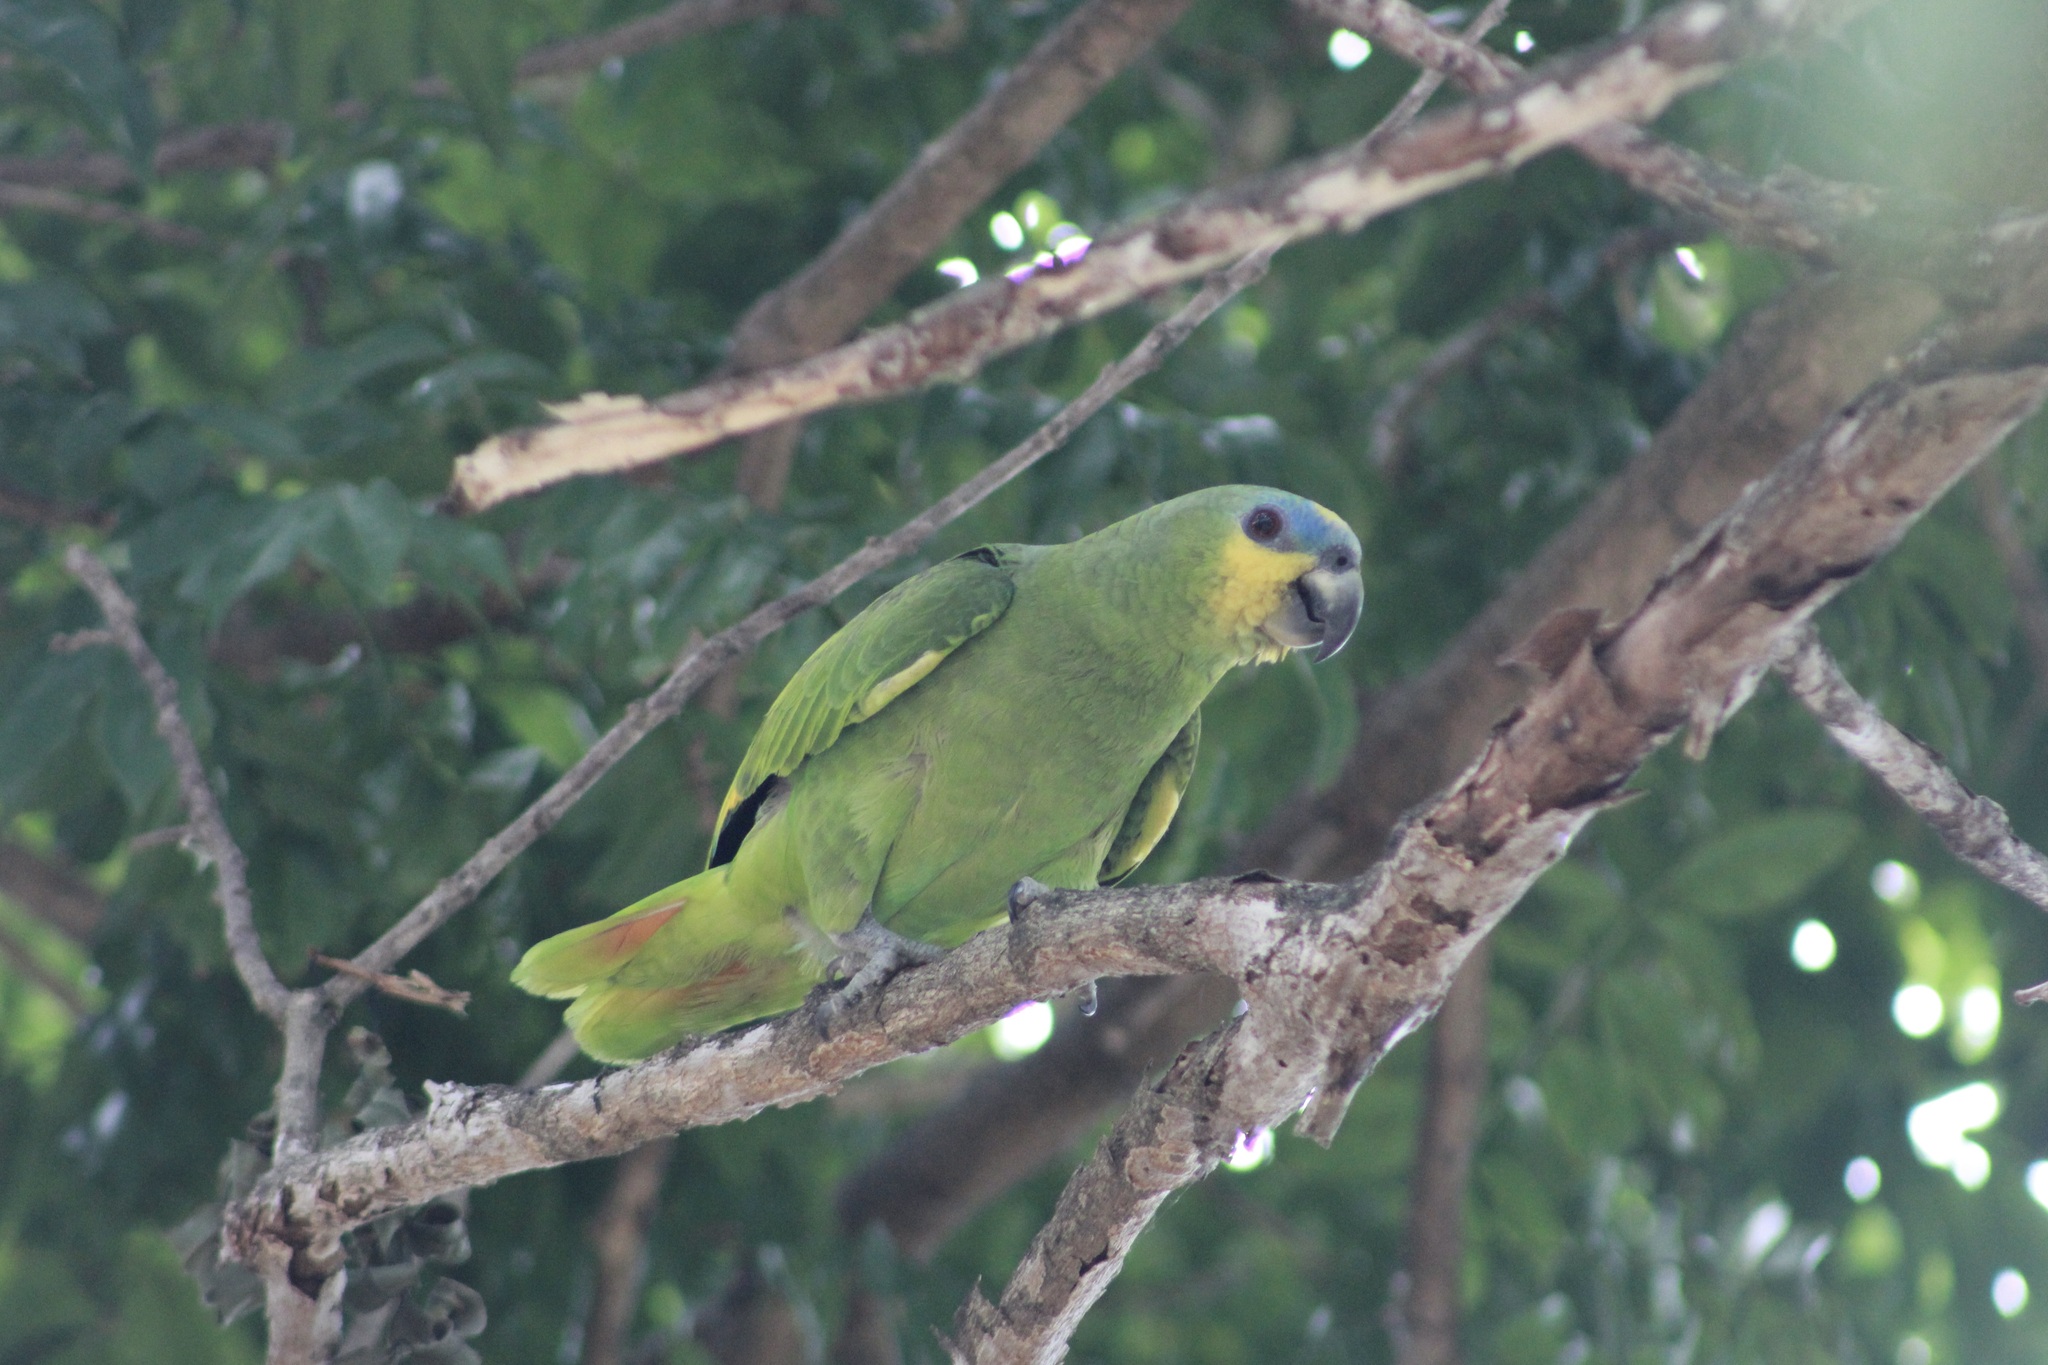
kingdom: Animalia
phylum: Chordata
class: Aves
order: Psittaciformes
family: Psittacidae
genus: Amazona
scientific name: Amazona amazonica
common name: Orange-winged amazon
